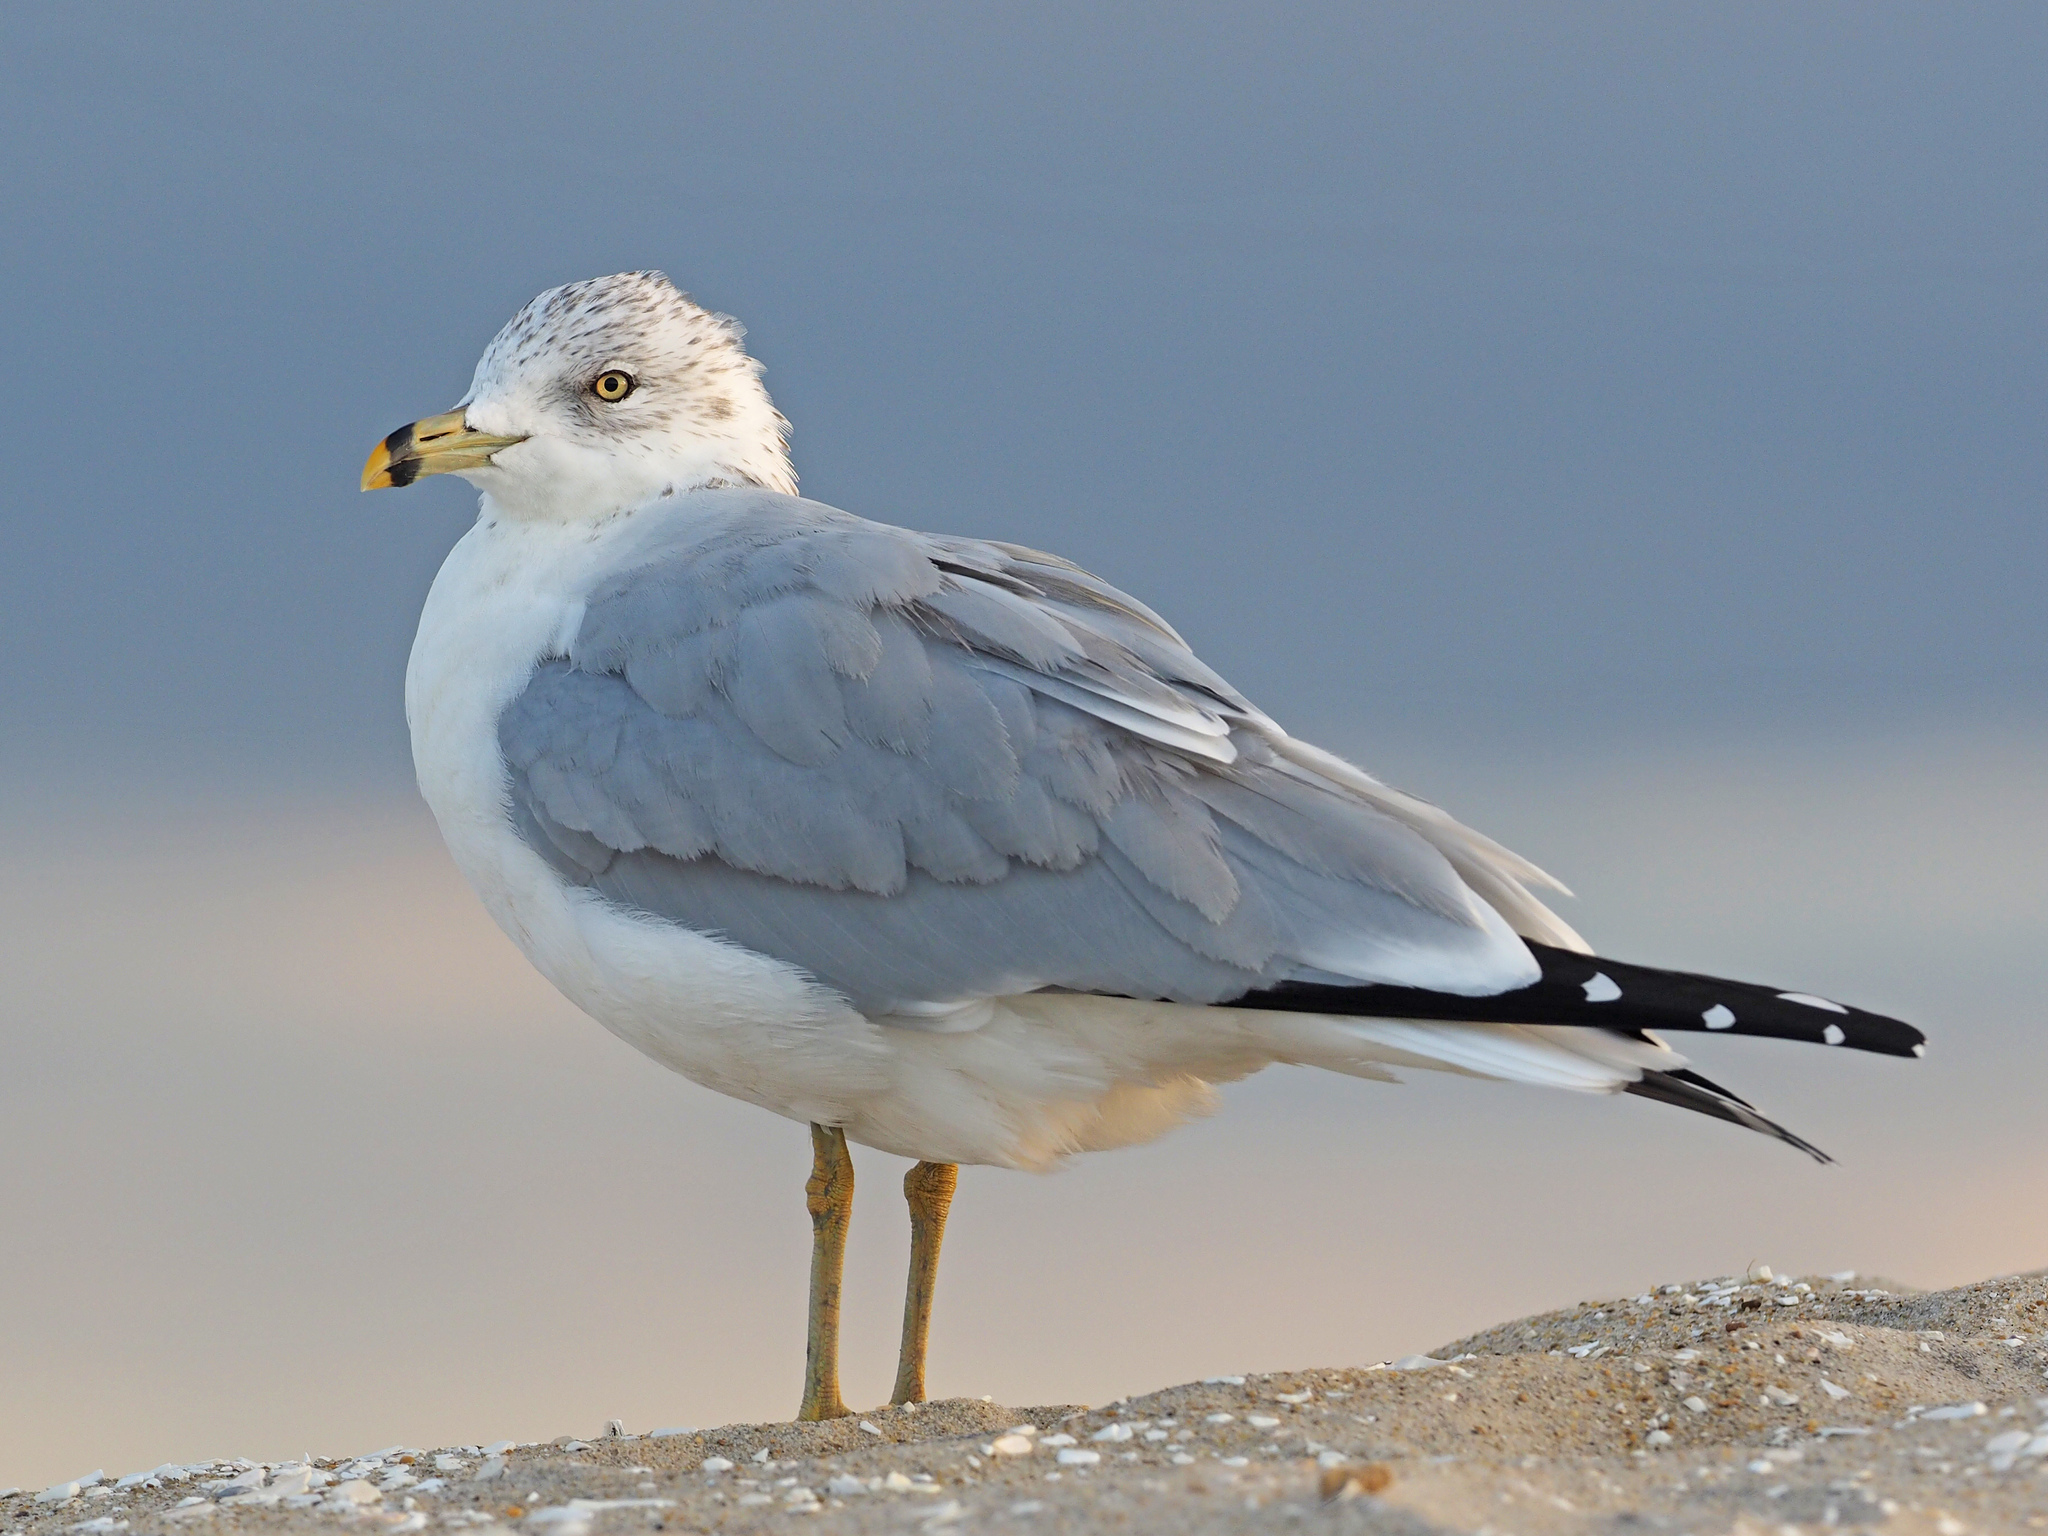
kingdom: Animalia
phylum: Chordata
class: Aves
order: Charadriiformes
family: Laridae
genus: Larus
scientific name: Larus delawarensis
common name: Ring-billed gull
